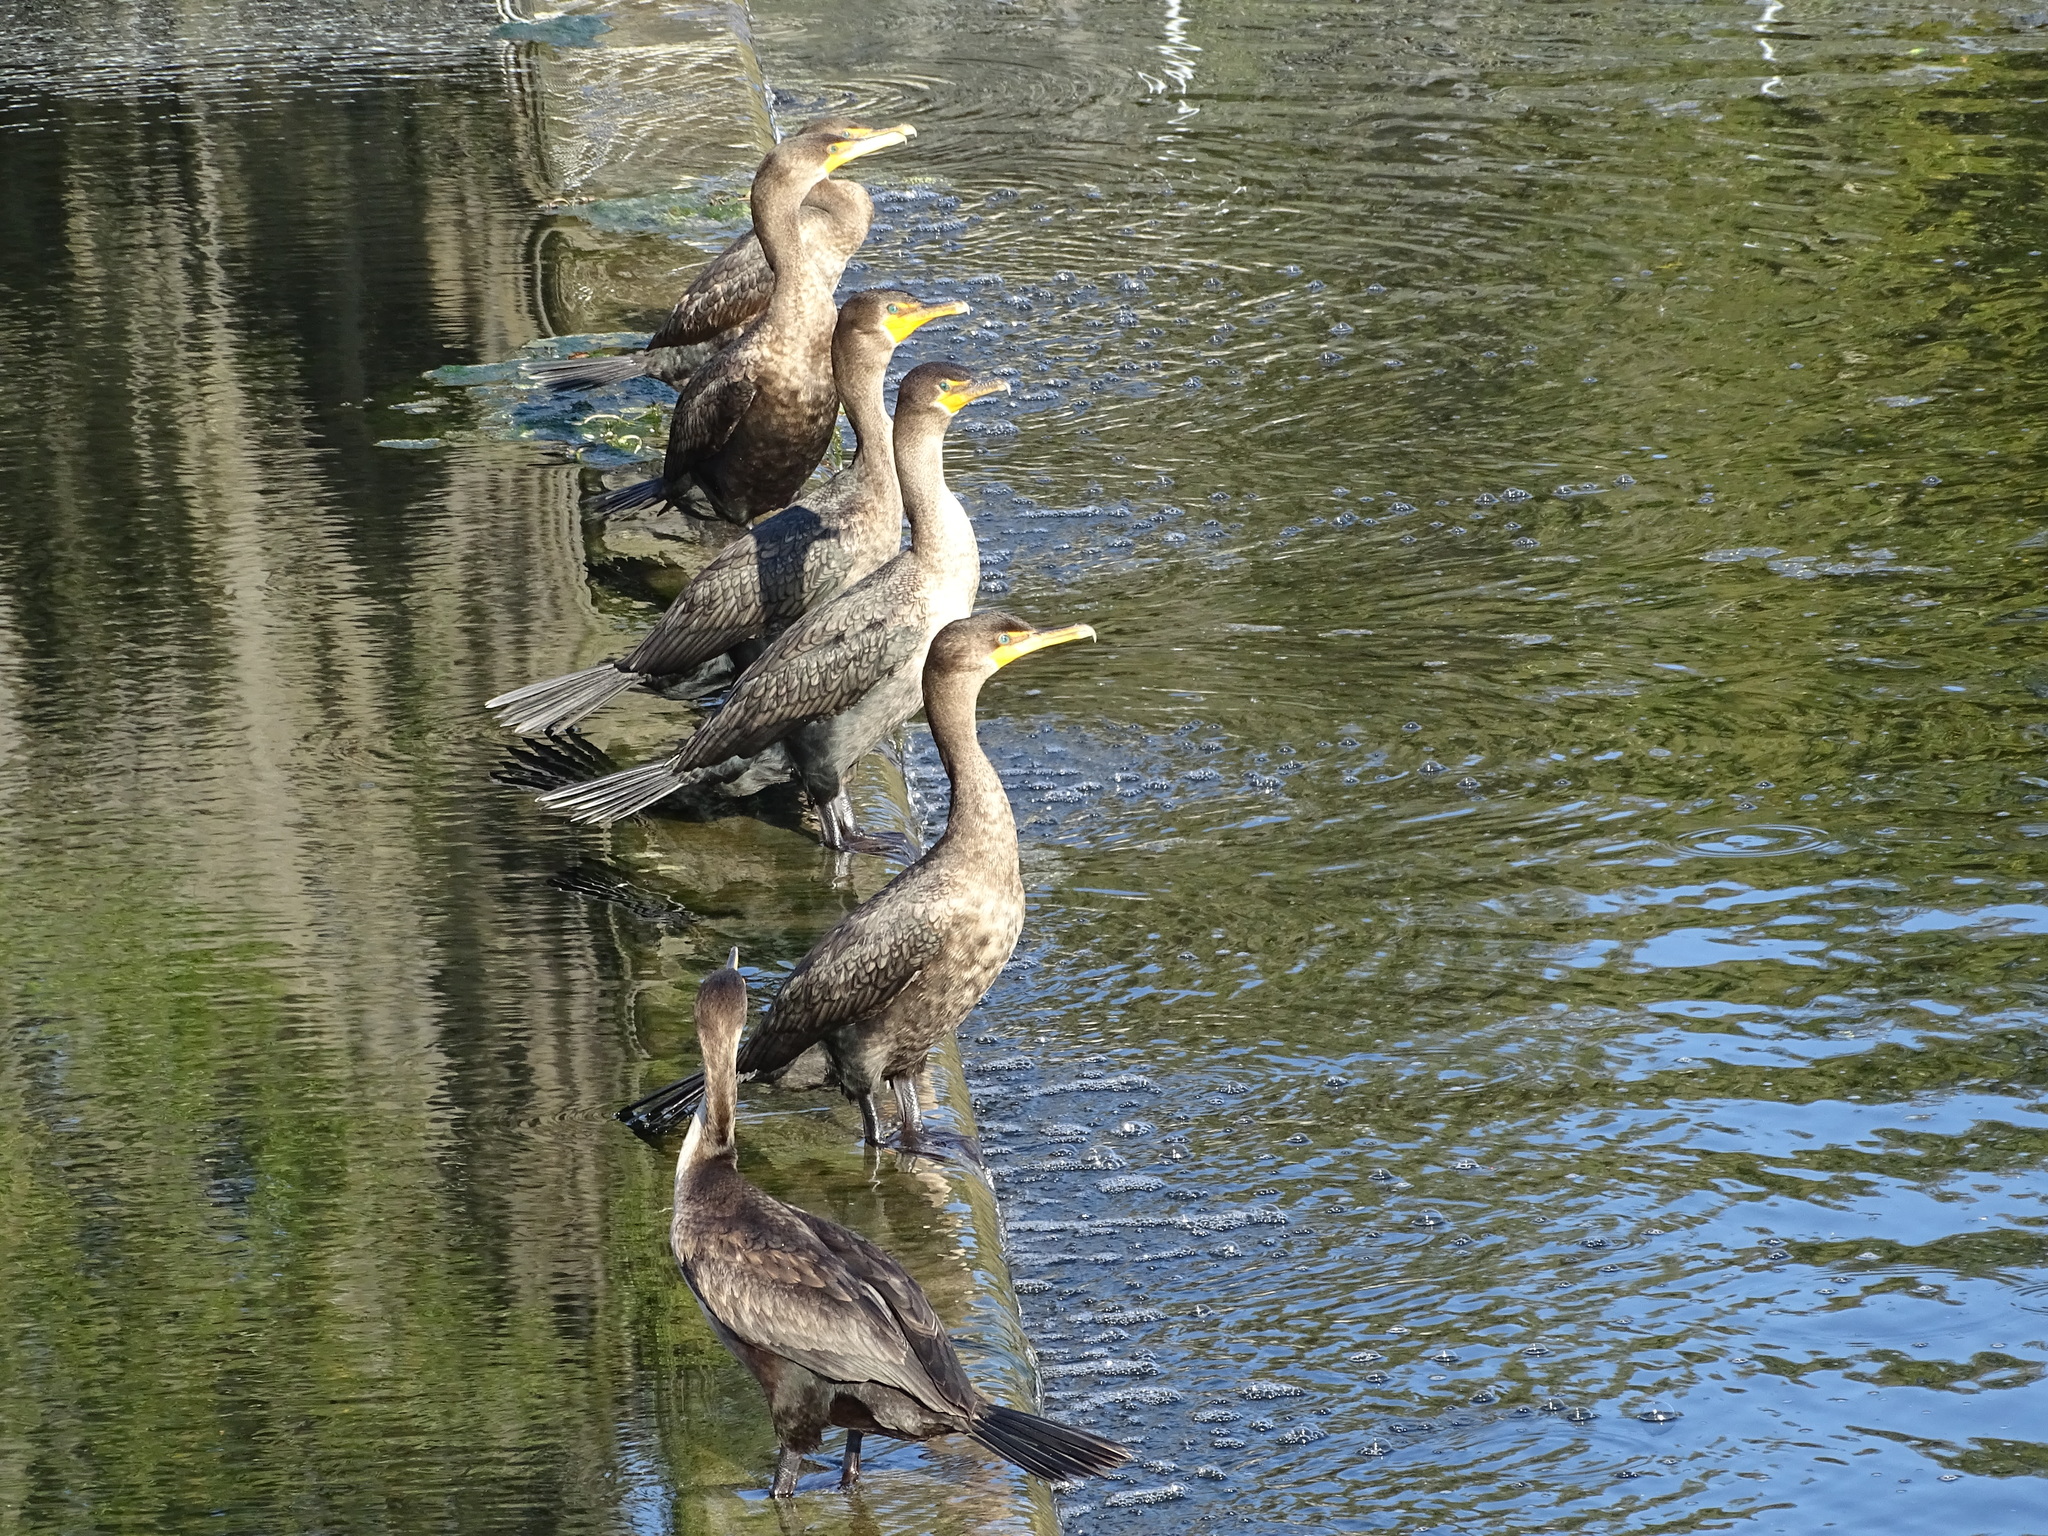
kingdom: Animalia
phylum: Chordata
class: Aves
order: Suliformes
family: Phalacrocoracidae
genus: Phalacrocorax
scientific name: Phalacrocorax auritus
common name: Double-crested cormorant
